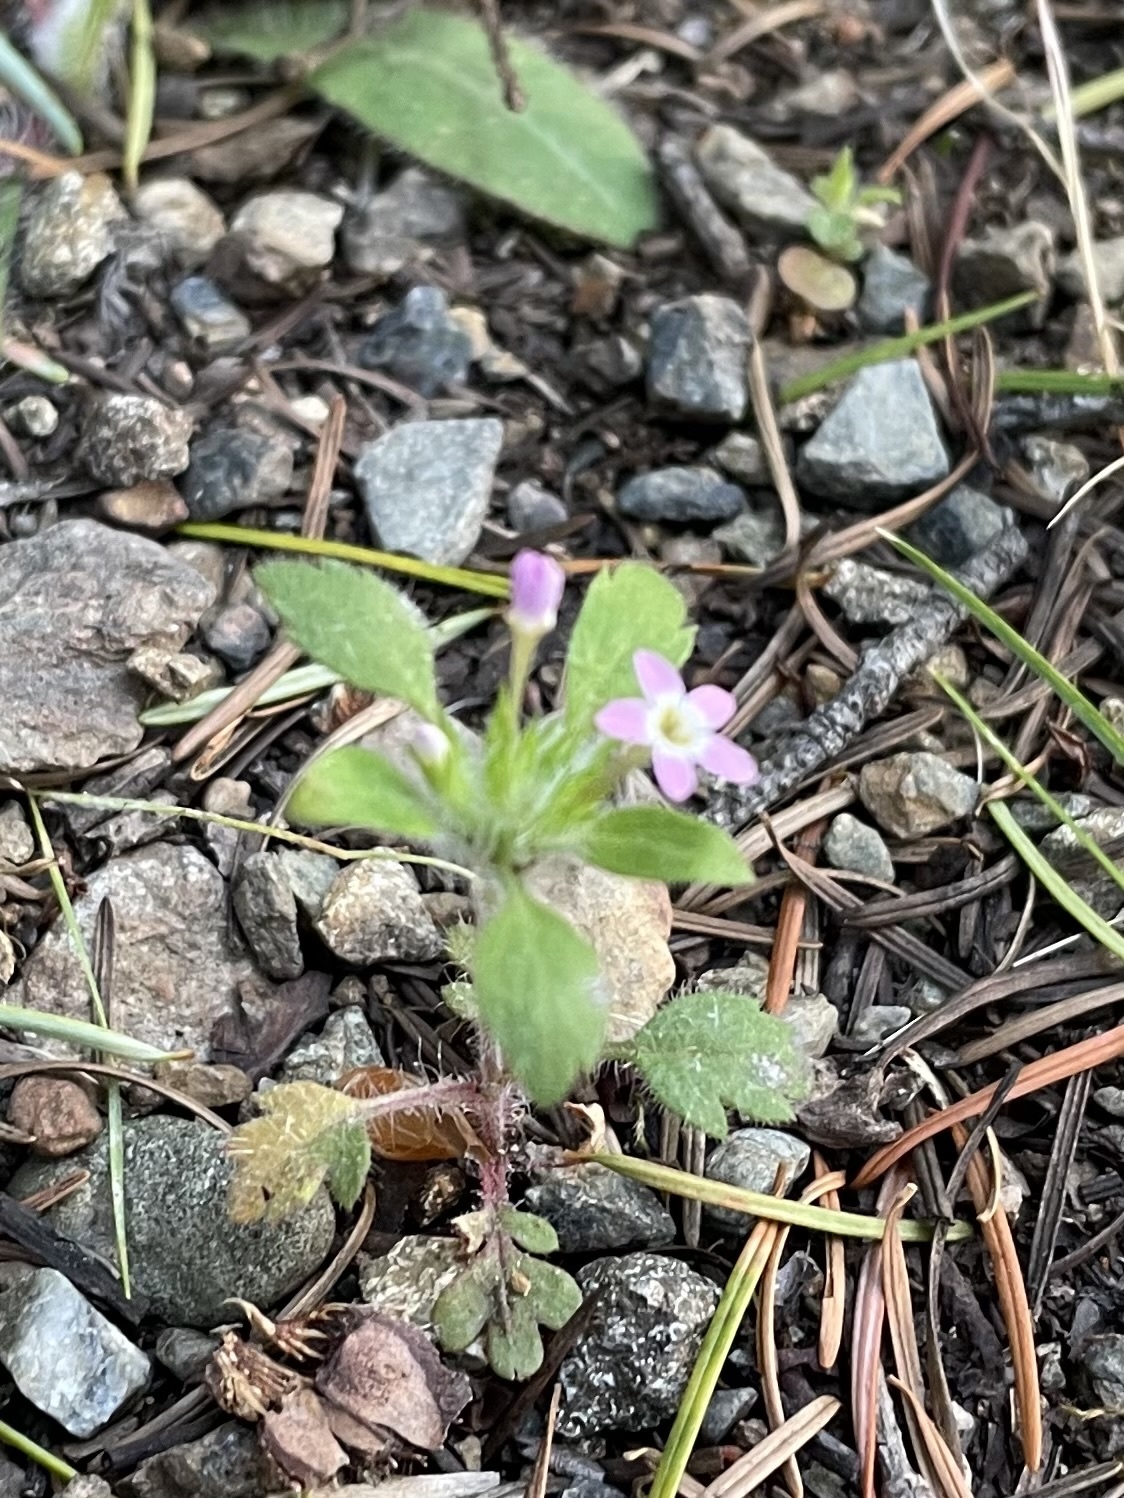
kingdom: Plantae
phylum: Tracheophyta
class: Magnoliopsida
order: Ericales
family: Polemoniaceae
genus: Collomia
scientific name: Collomia heterophylla
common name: Variable-leaved collomia
